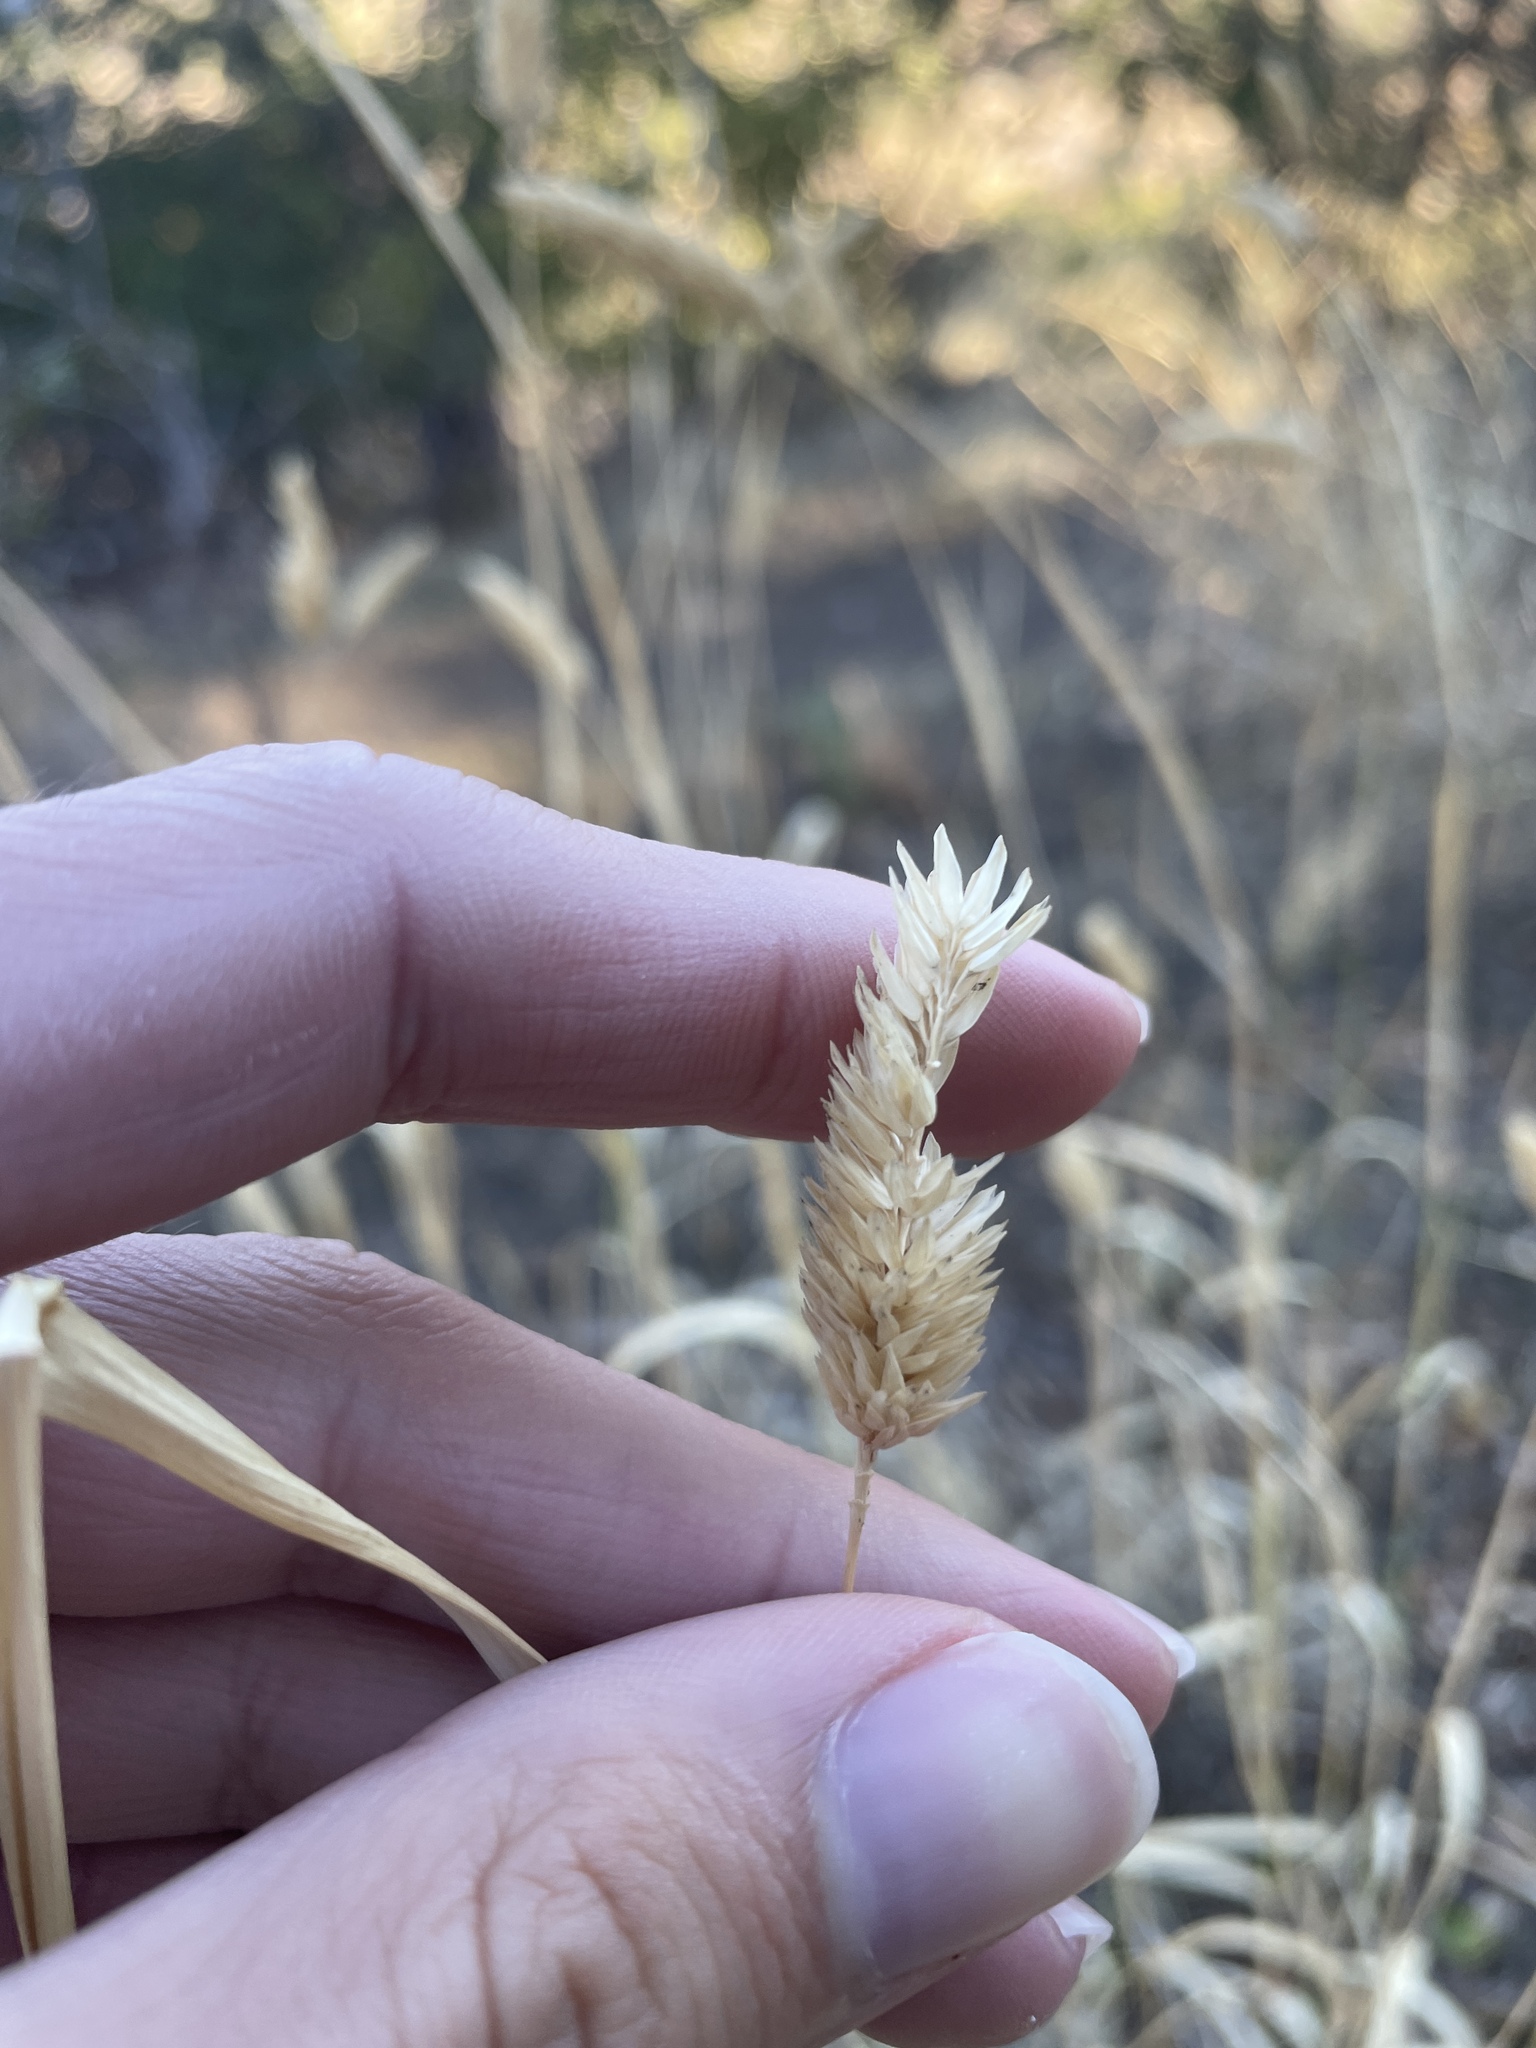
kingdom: Plantae
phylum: Tracheophyta
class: Liliopsida
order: Poales
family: Poaceae
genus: Phalaris
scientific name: Phalaris aquatica
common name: Bulbous canary-grass
